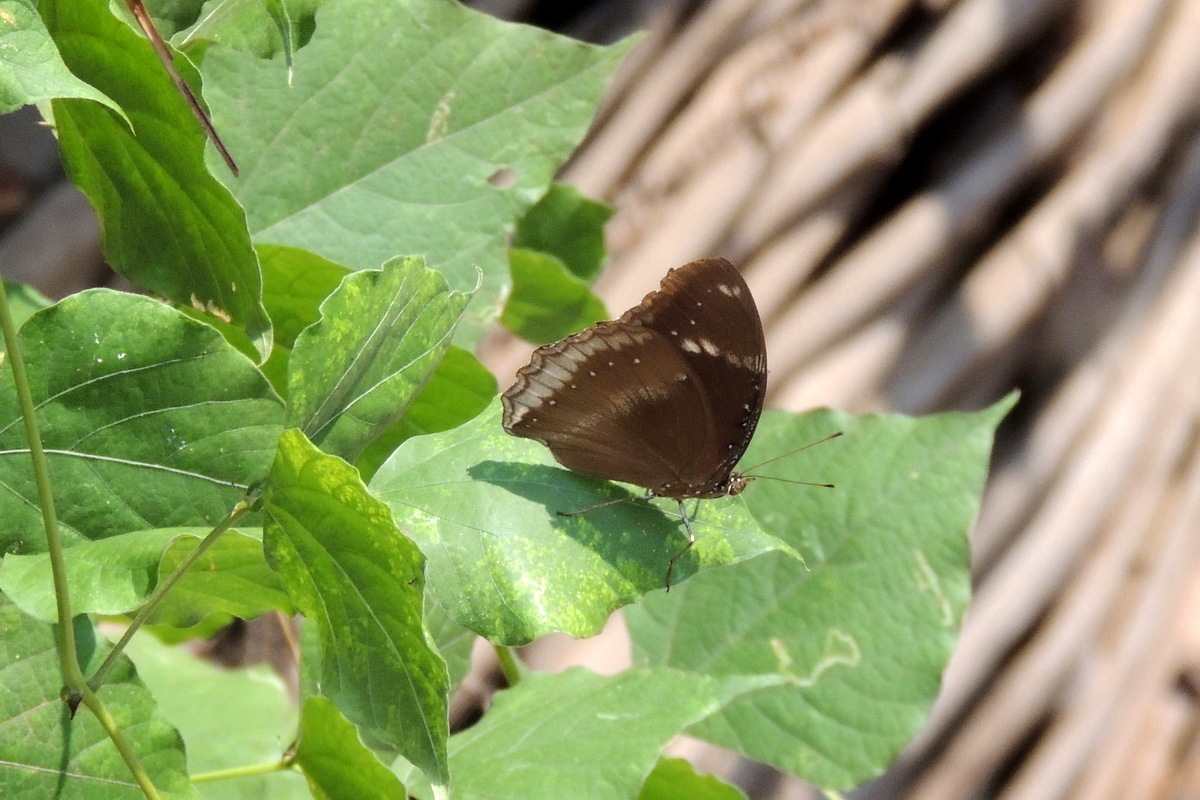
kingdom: Animalia
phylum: Arthropoda
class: Insecta
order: Lepidoptera
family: Nymphalidae
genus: Hypolimnas
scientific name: Hypolimnas bolina
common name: Great eggfly
